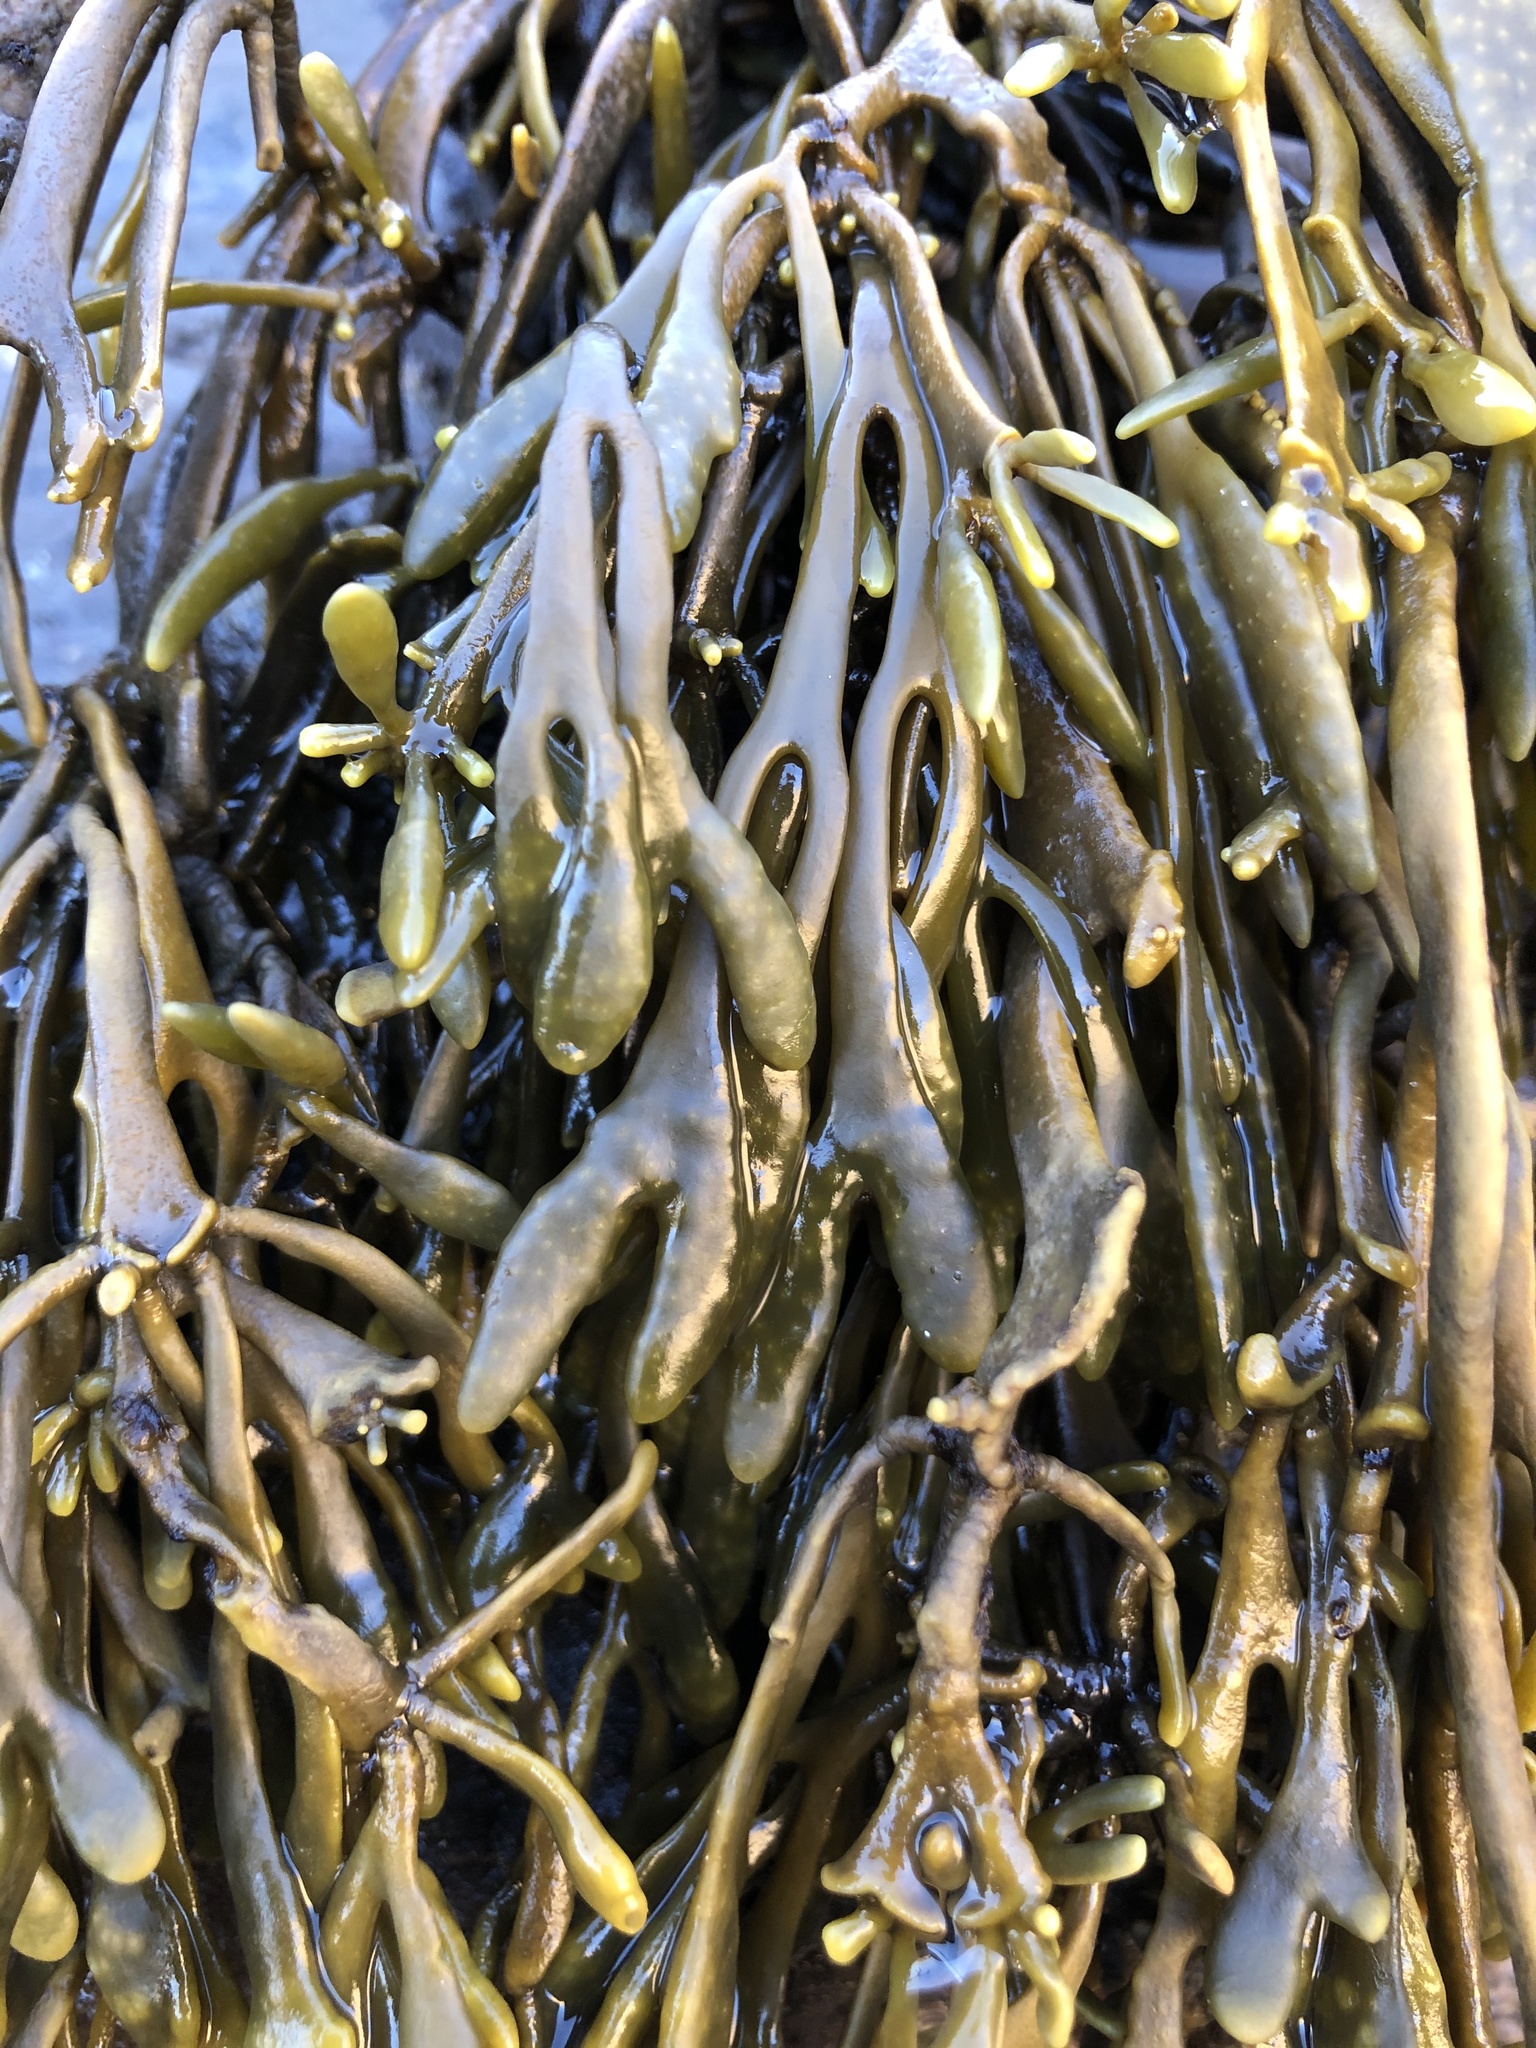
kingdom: Chromista
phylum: Ochrophyta
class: Phaeophyceae
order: Fucales
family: Fucaceae
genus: Silvetia
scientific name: Silvetia
